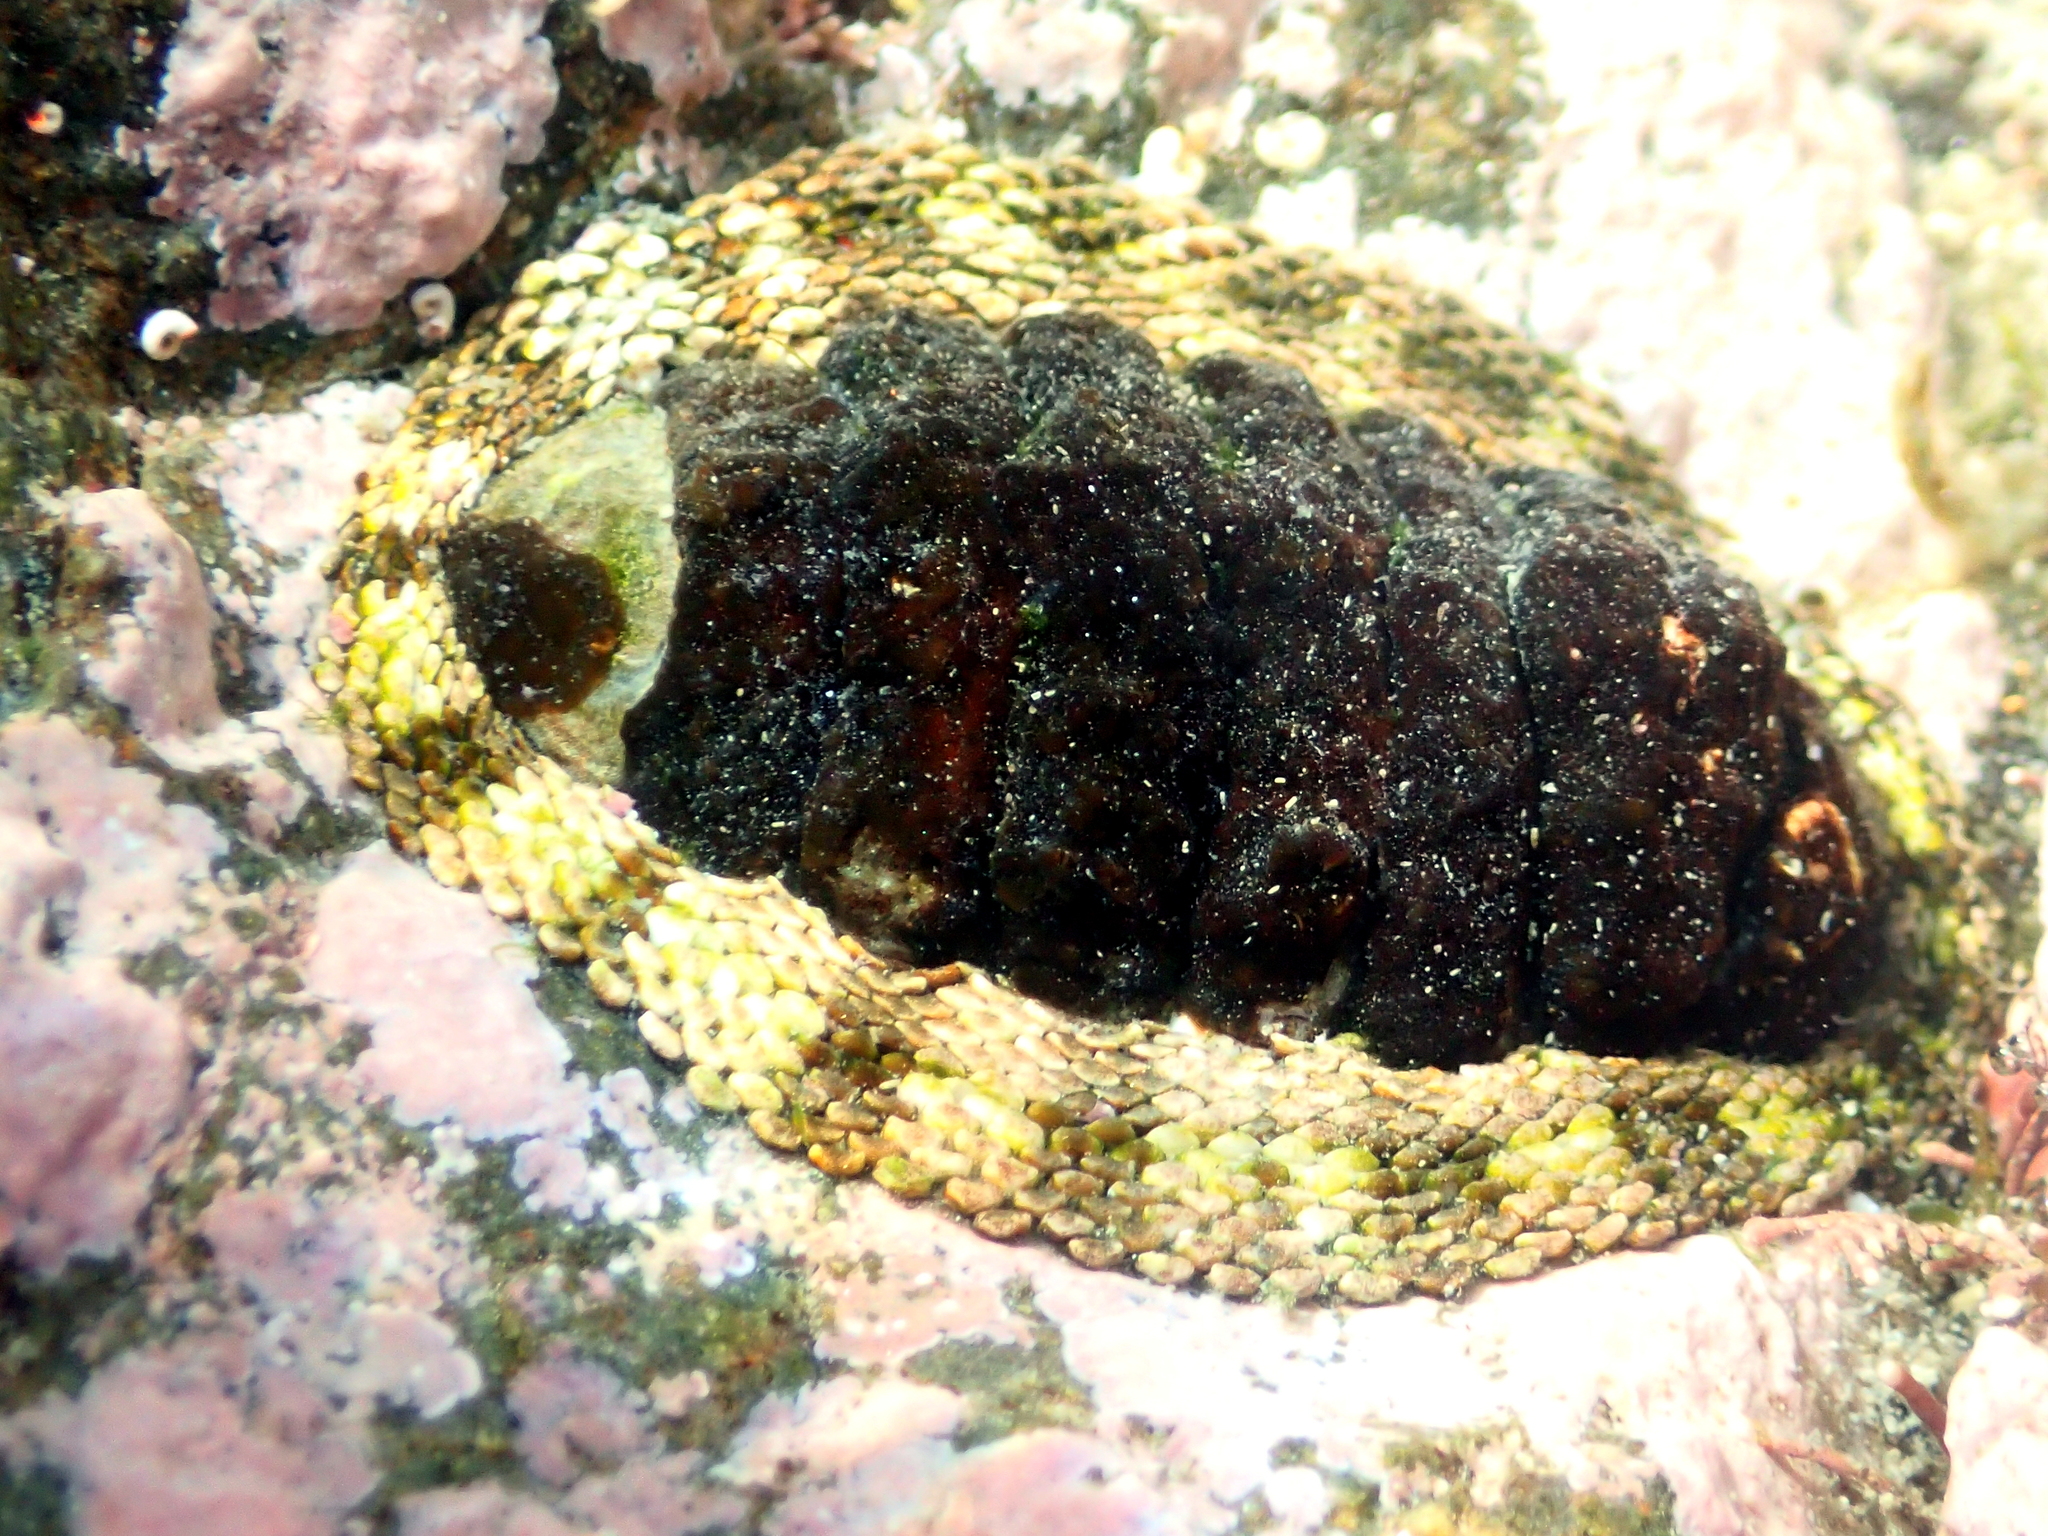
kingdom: Animalia
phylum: Mollusca
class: Polyplacophora
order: Chitonida
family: Chitonidae
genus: Sypharochiton
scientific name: Sypharochiton pelliserpentis
